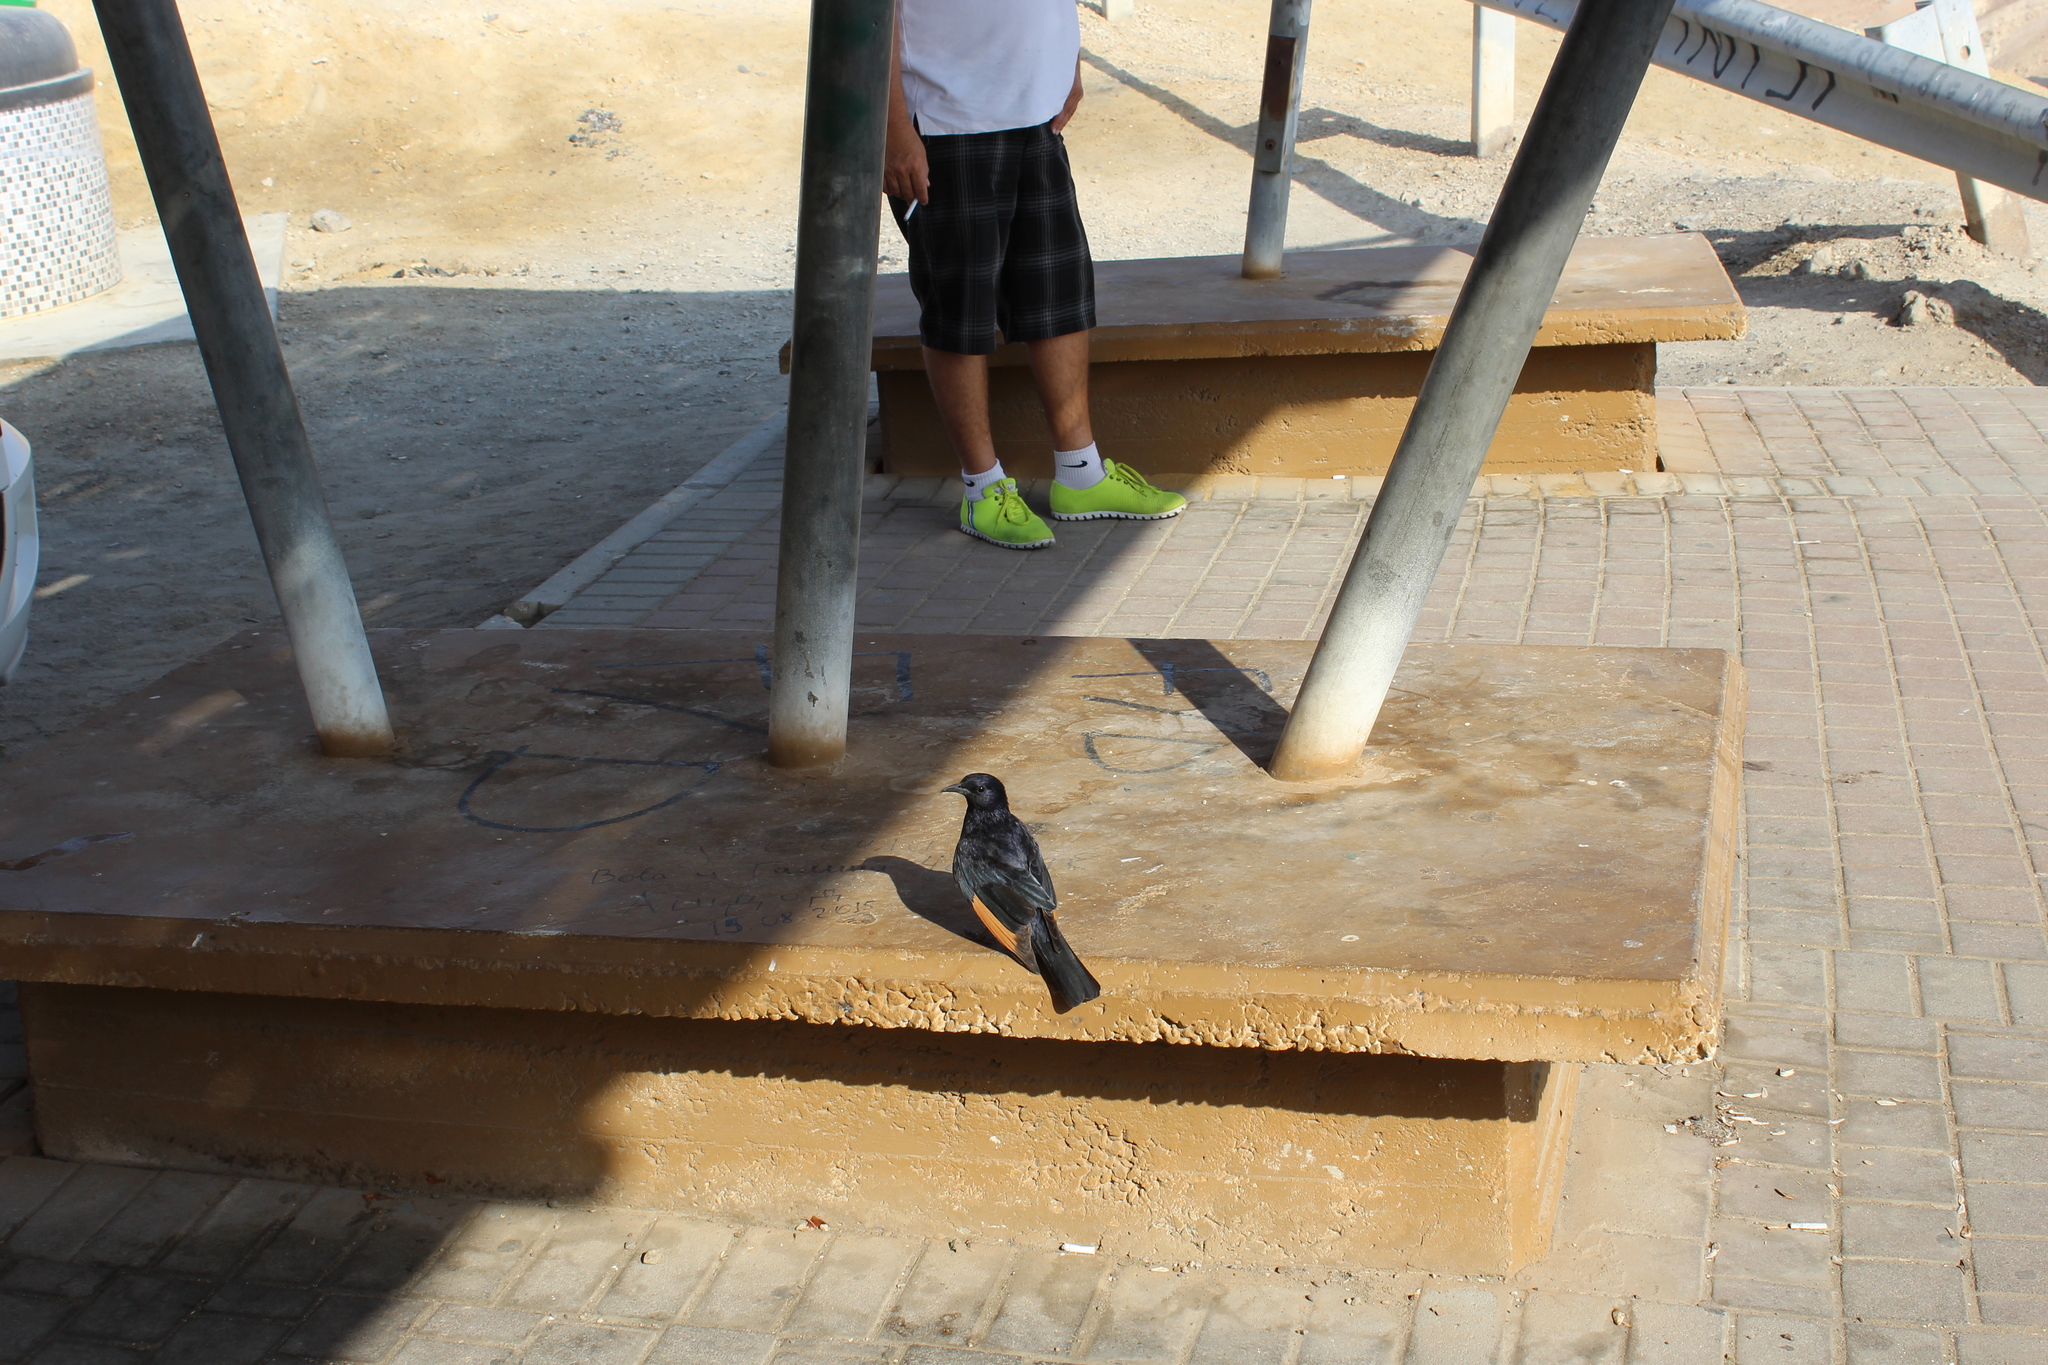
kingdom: Animalia
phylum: Chordata
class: Aves
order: Passeriformes
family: Sturnidae
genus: Onychognathus
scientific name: Onychognathus tristramii
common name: Tristram's starling
